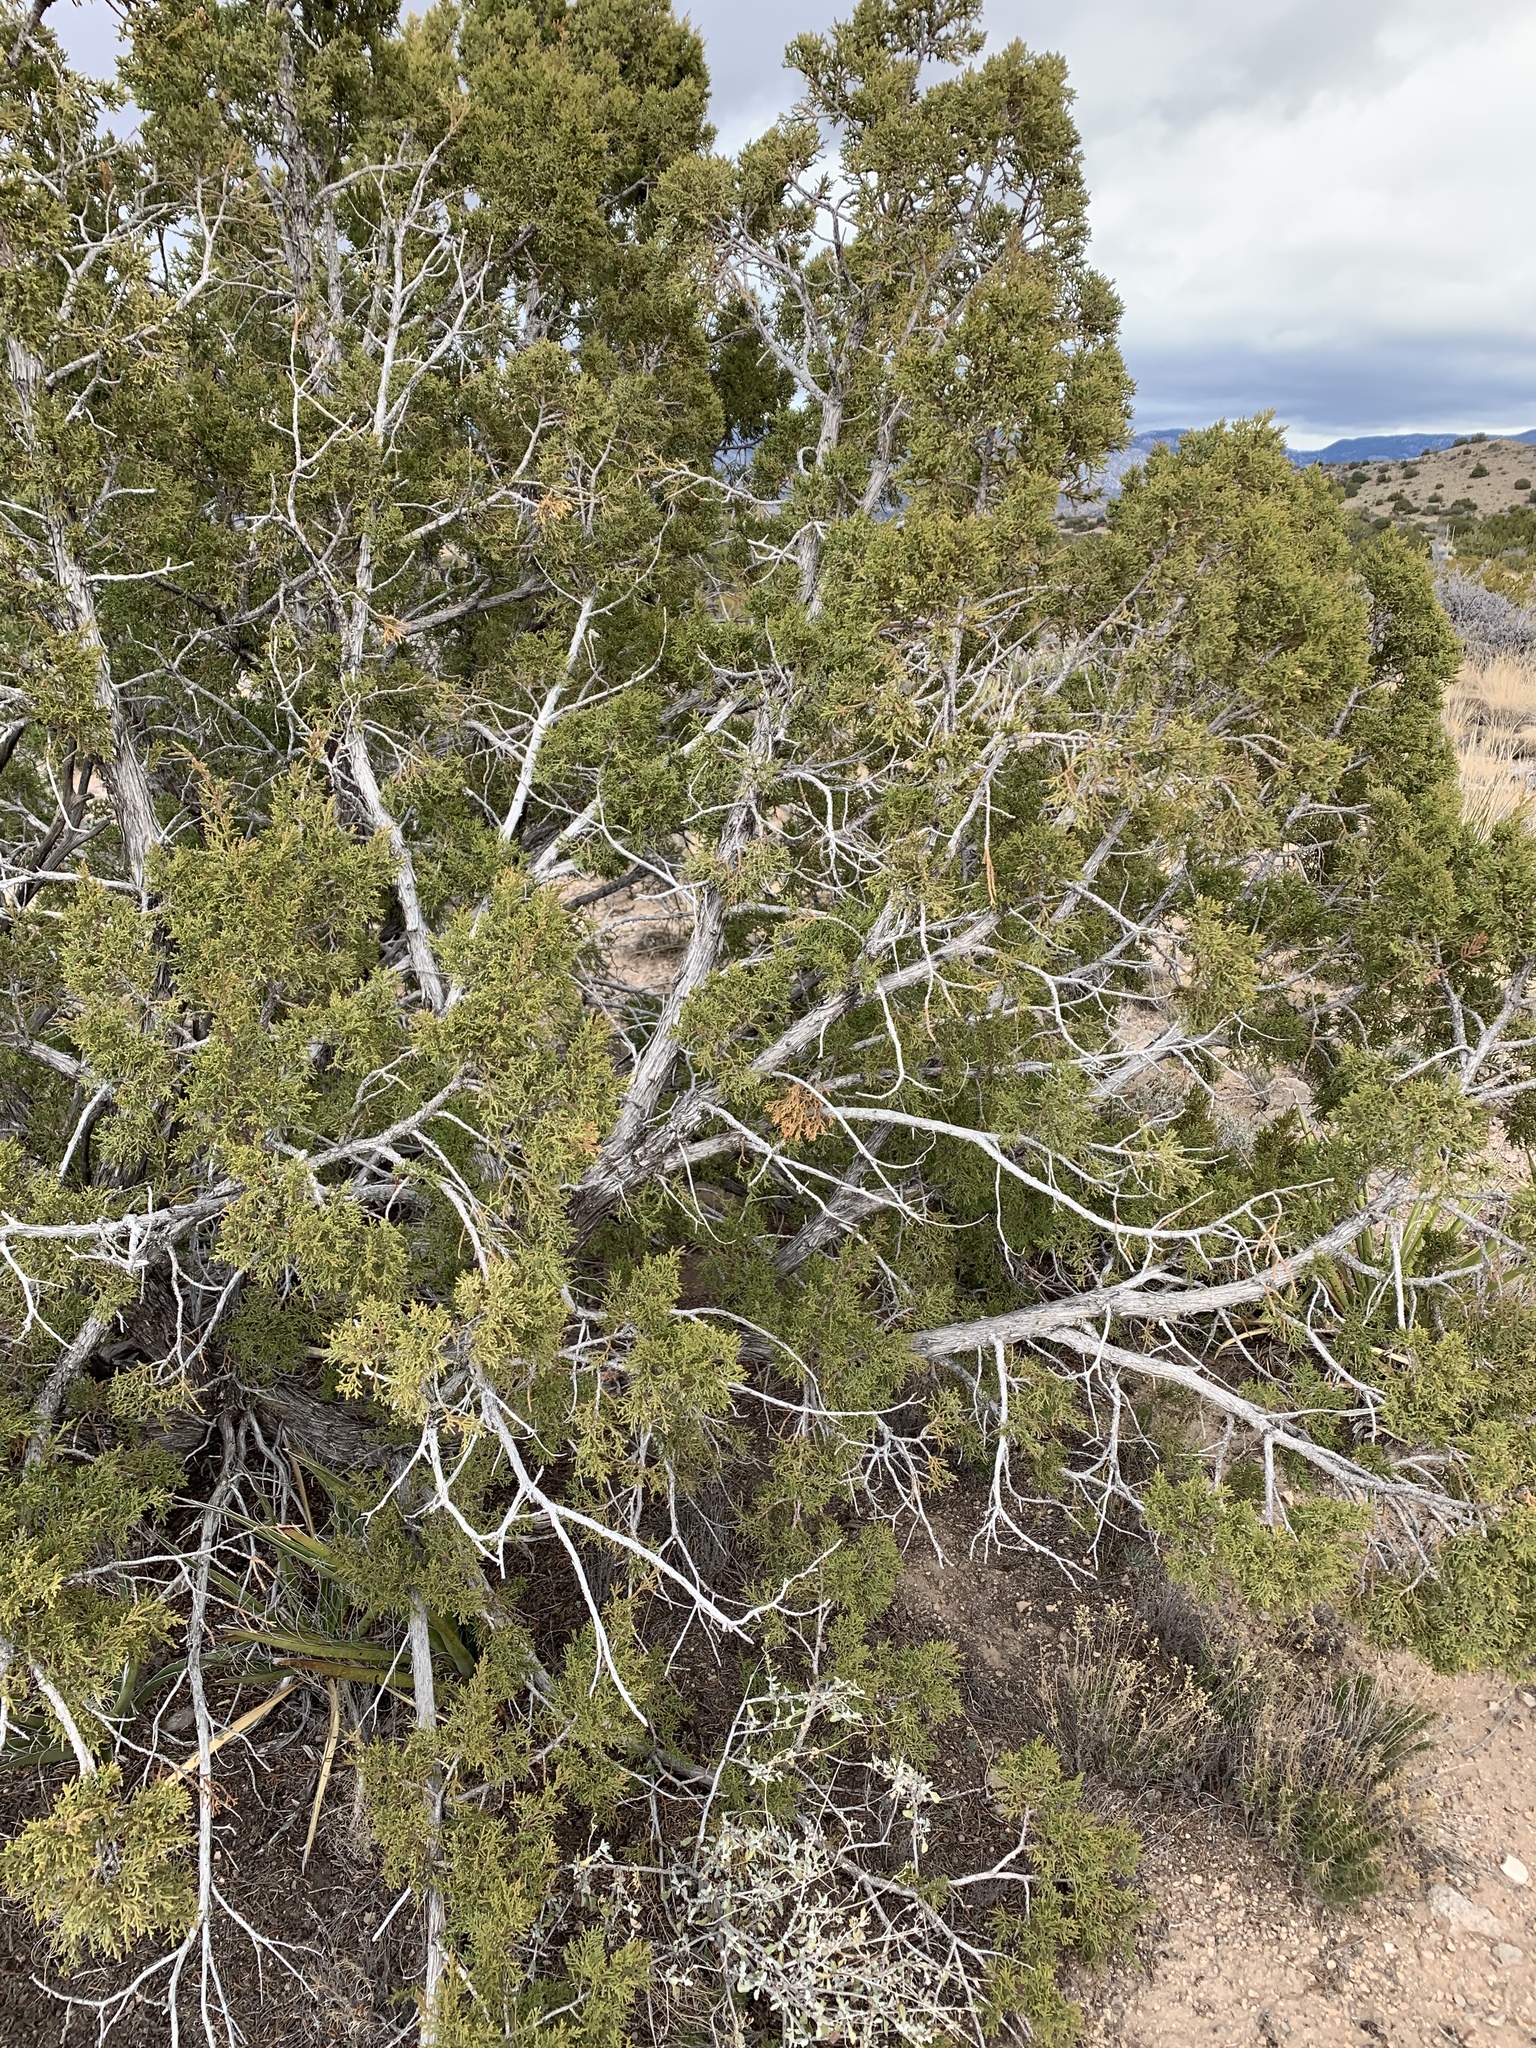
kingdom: Plantae
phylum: Tracheophyta
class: Pinopsida
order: Pinales
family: Cupressaceae
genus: Juniperus
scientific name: Juniperus monosperma
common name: One-seed juniper
